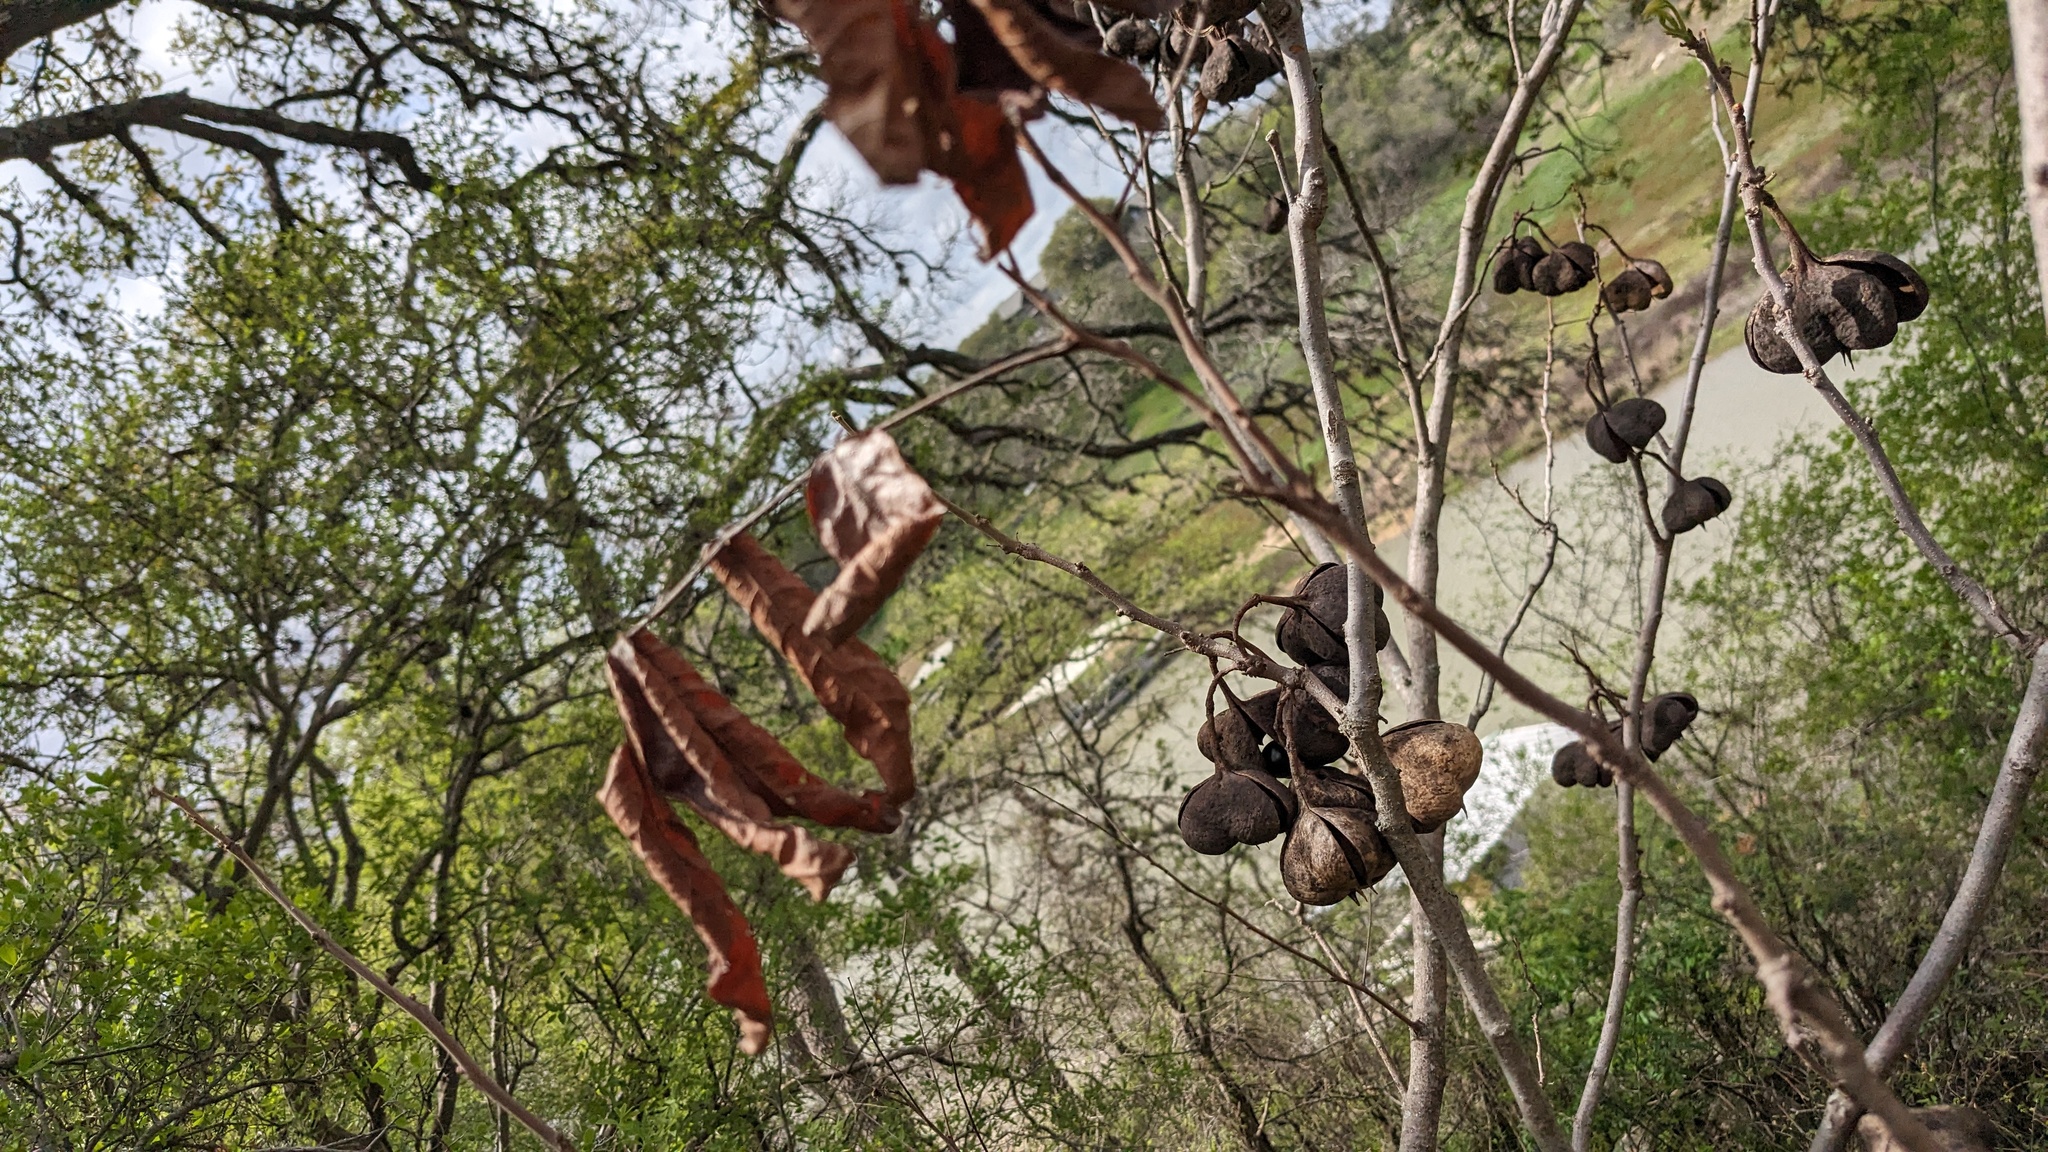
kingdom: Plantae
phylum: Tracheophyta
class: Magnoliopsida
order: Sapindales
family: Sapindaceae
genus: Ungnadia
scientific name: Ungnadia speciosa
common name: Texas-buckeye
